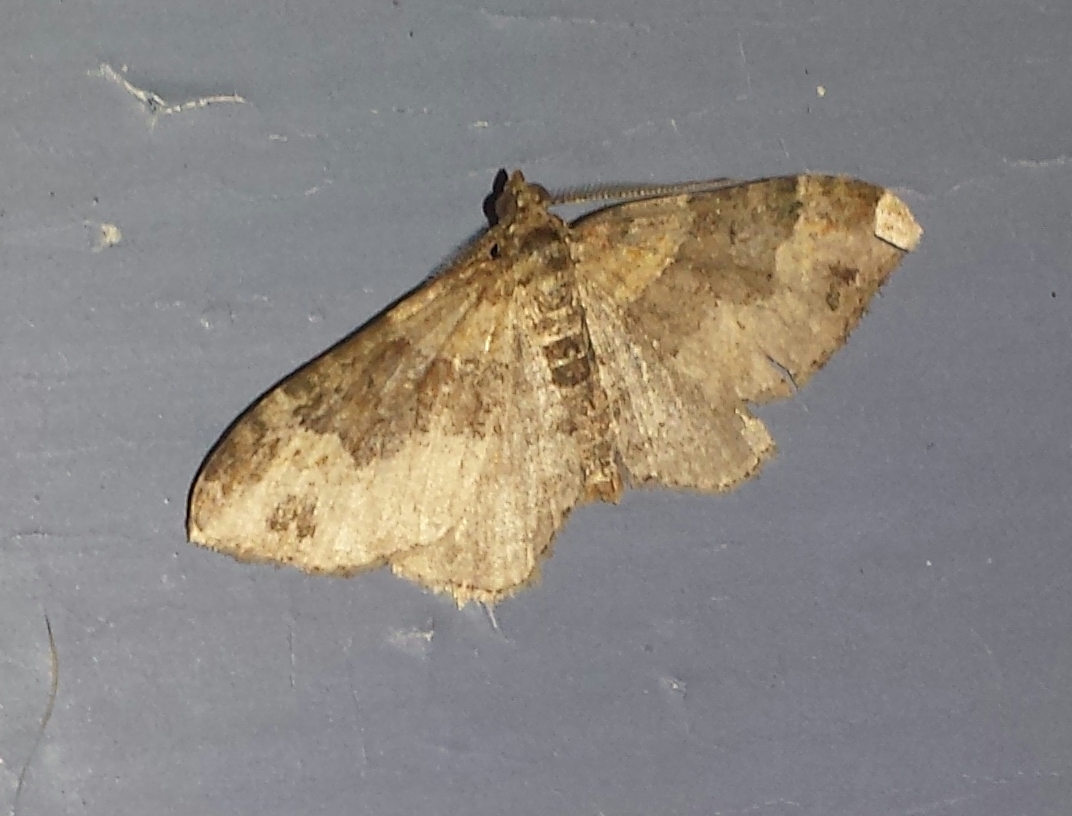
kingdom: Animalia
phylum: Arthropoda
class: Insecta
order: Lepidoptera
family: Geometridae
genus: Xanthorhoe
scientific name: Xanthorhoe ferrugata
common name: Dark-barred twin-spot carpet
